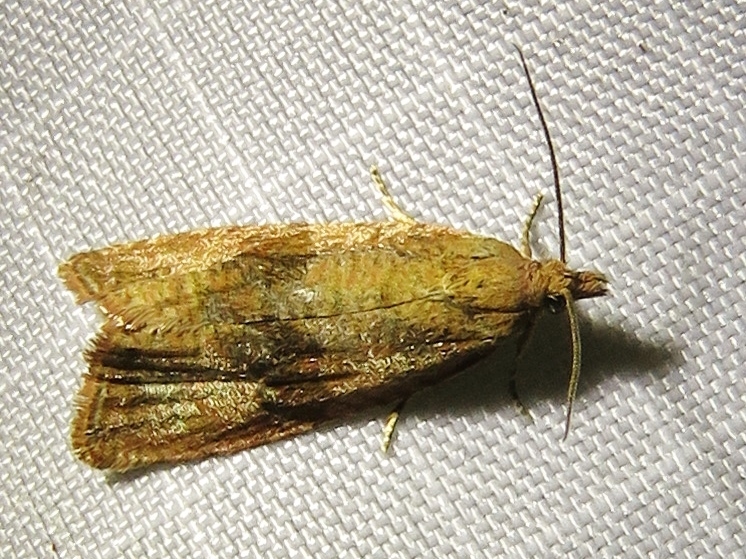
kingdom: Animalia
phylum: Arthropoda
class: Insecta
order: Lepidoptera
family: Tortricidae
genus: Celypha
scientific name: Celypha striana
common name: Barred marble
